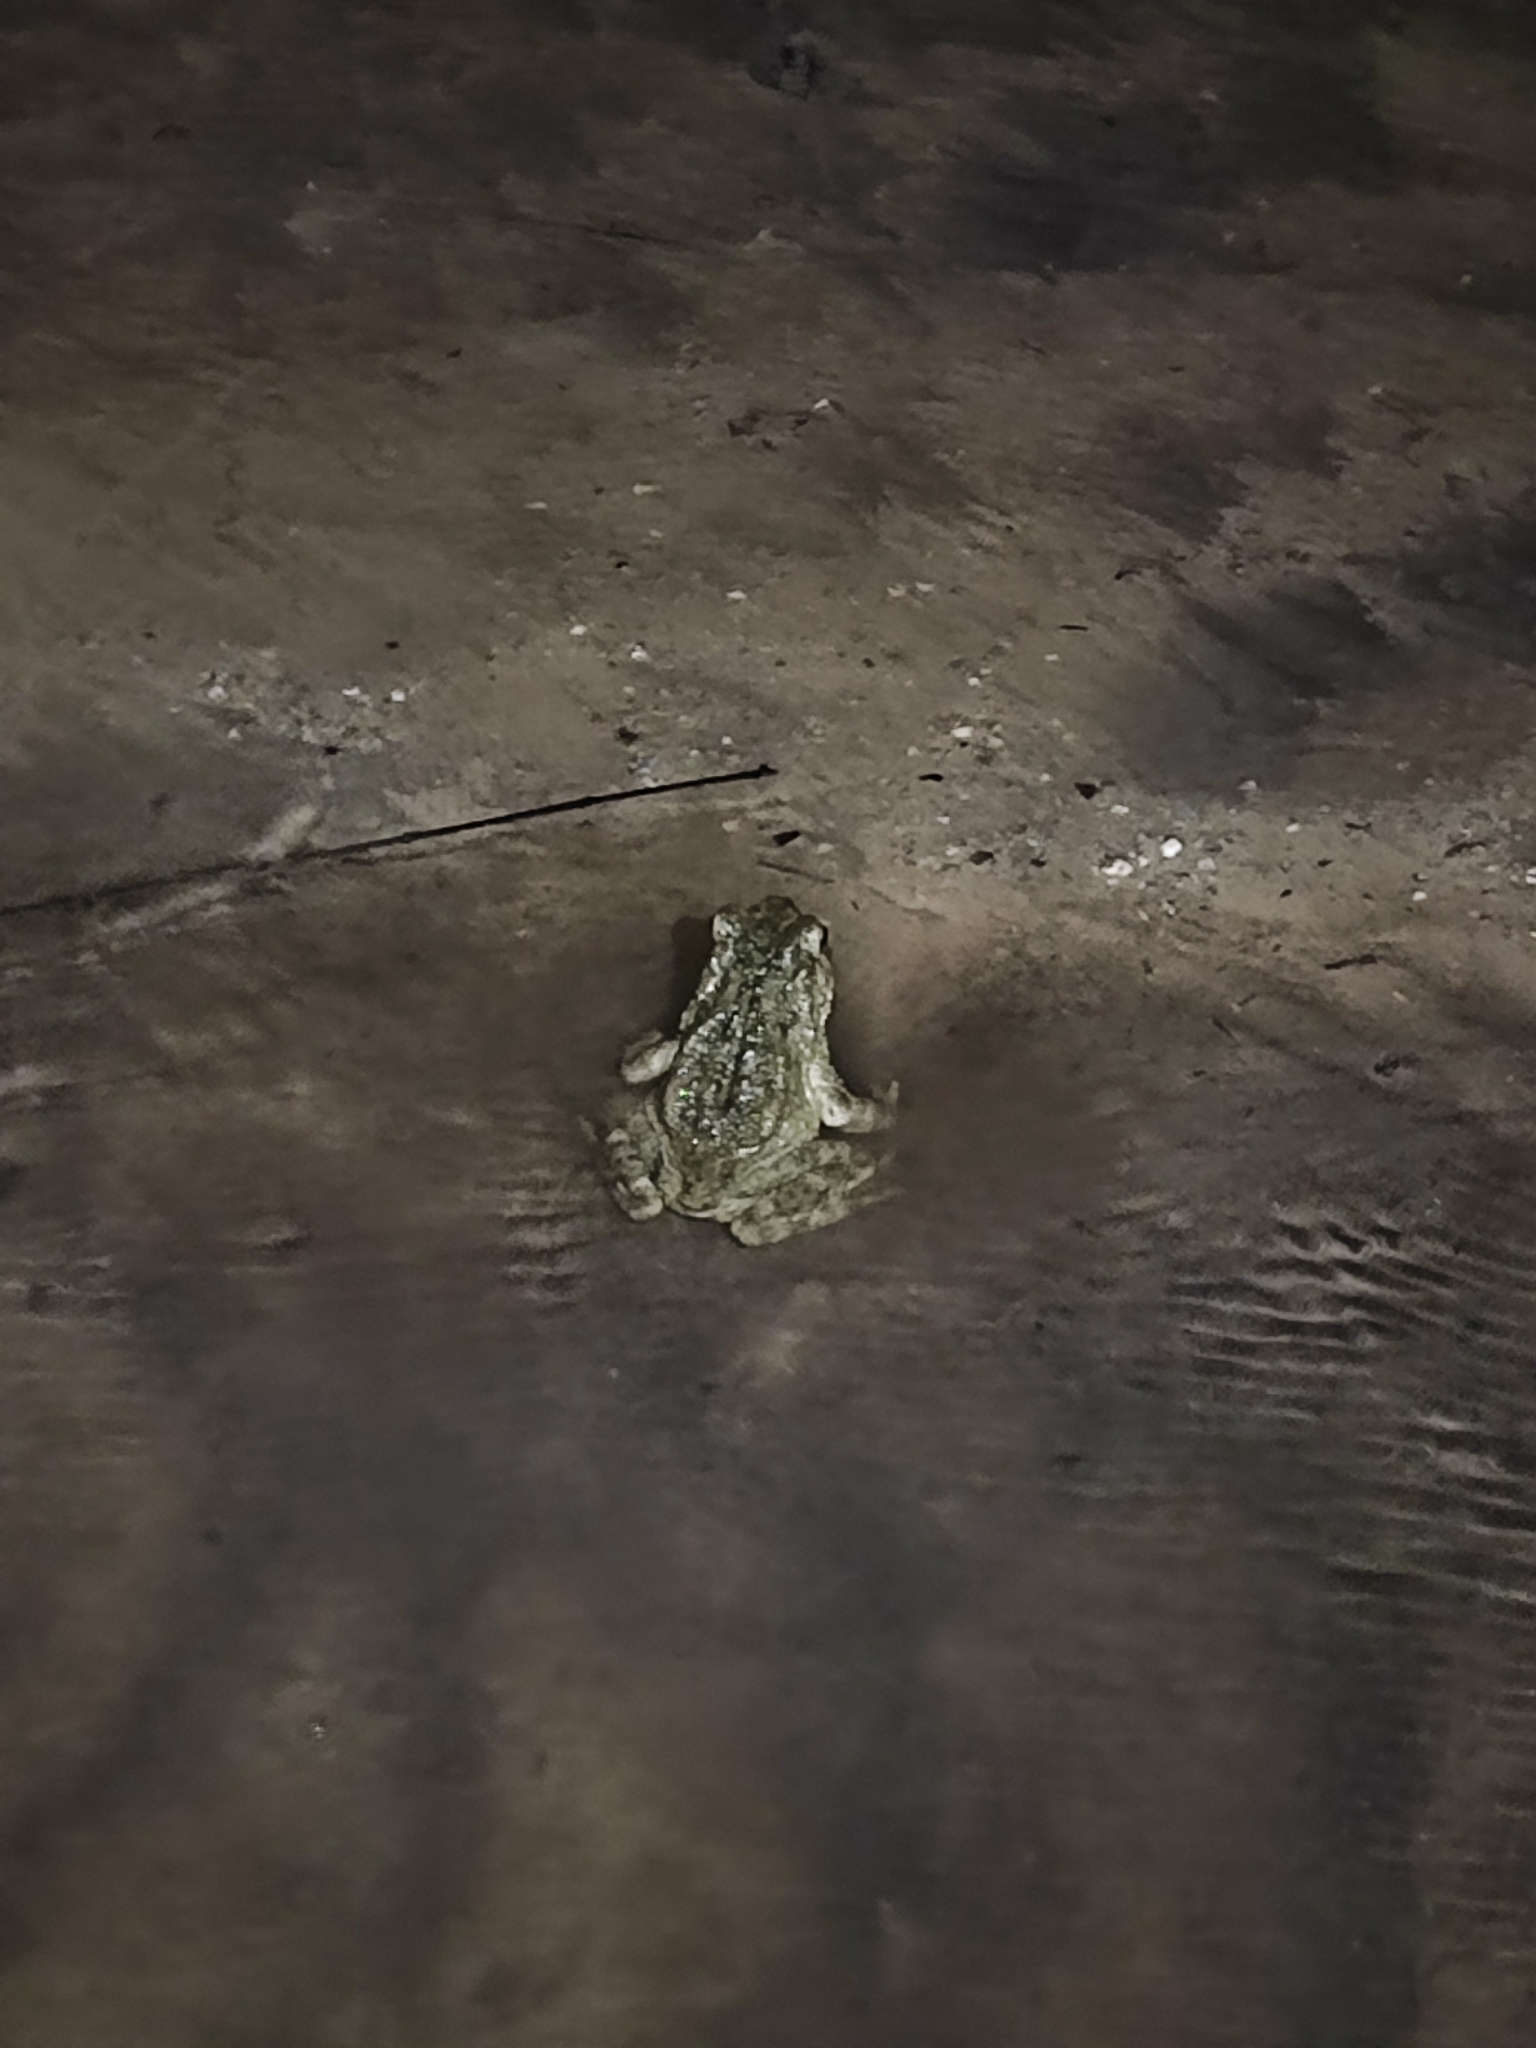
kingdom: Animalia
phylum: Chordata
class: Amphibia
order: Anura
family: Bufonidae
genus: Phrynoidis
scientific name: Phrynoidis asper
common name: Asian giant toad
